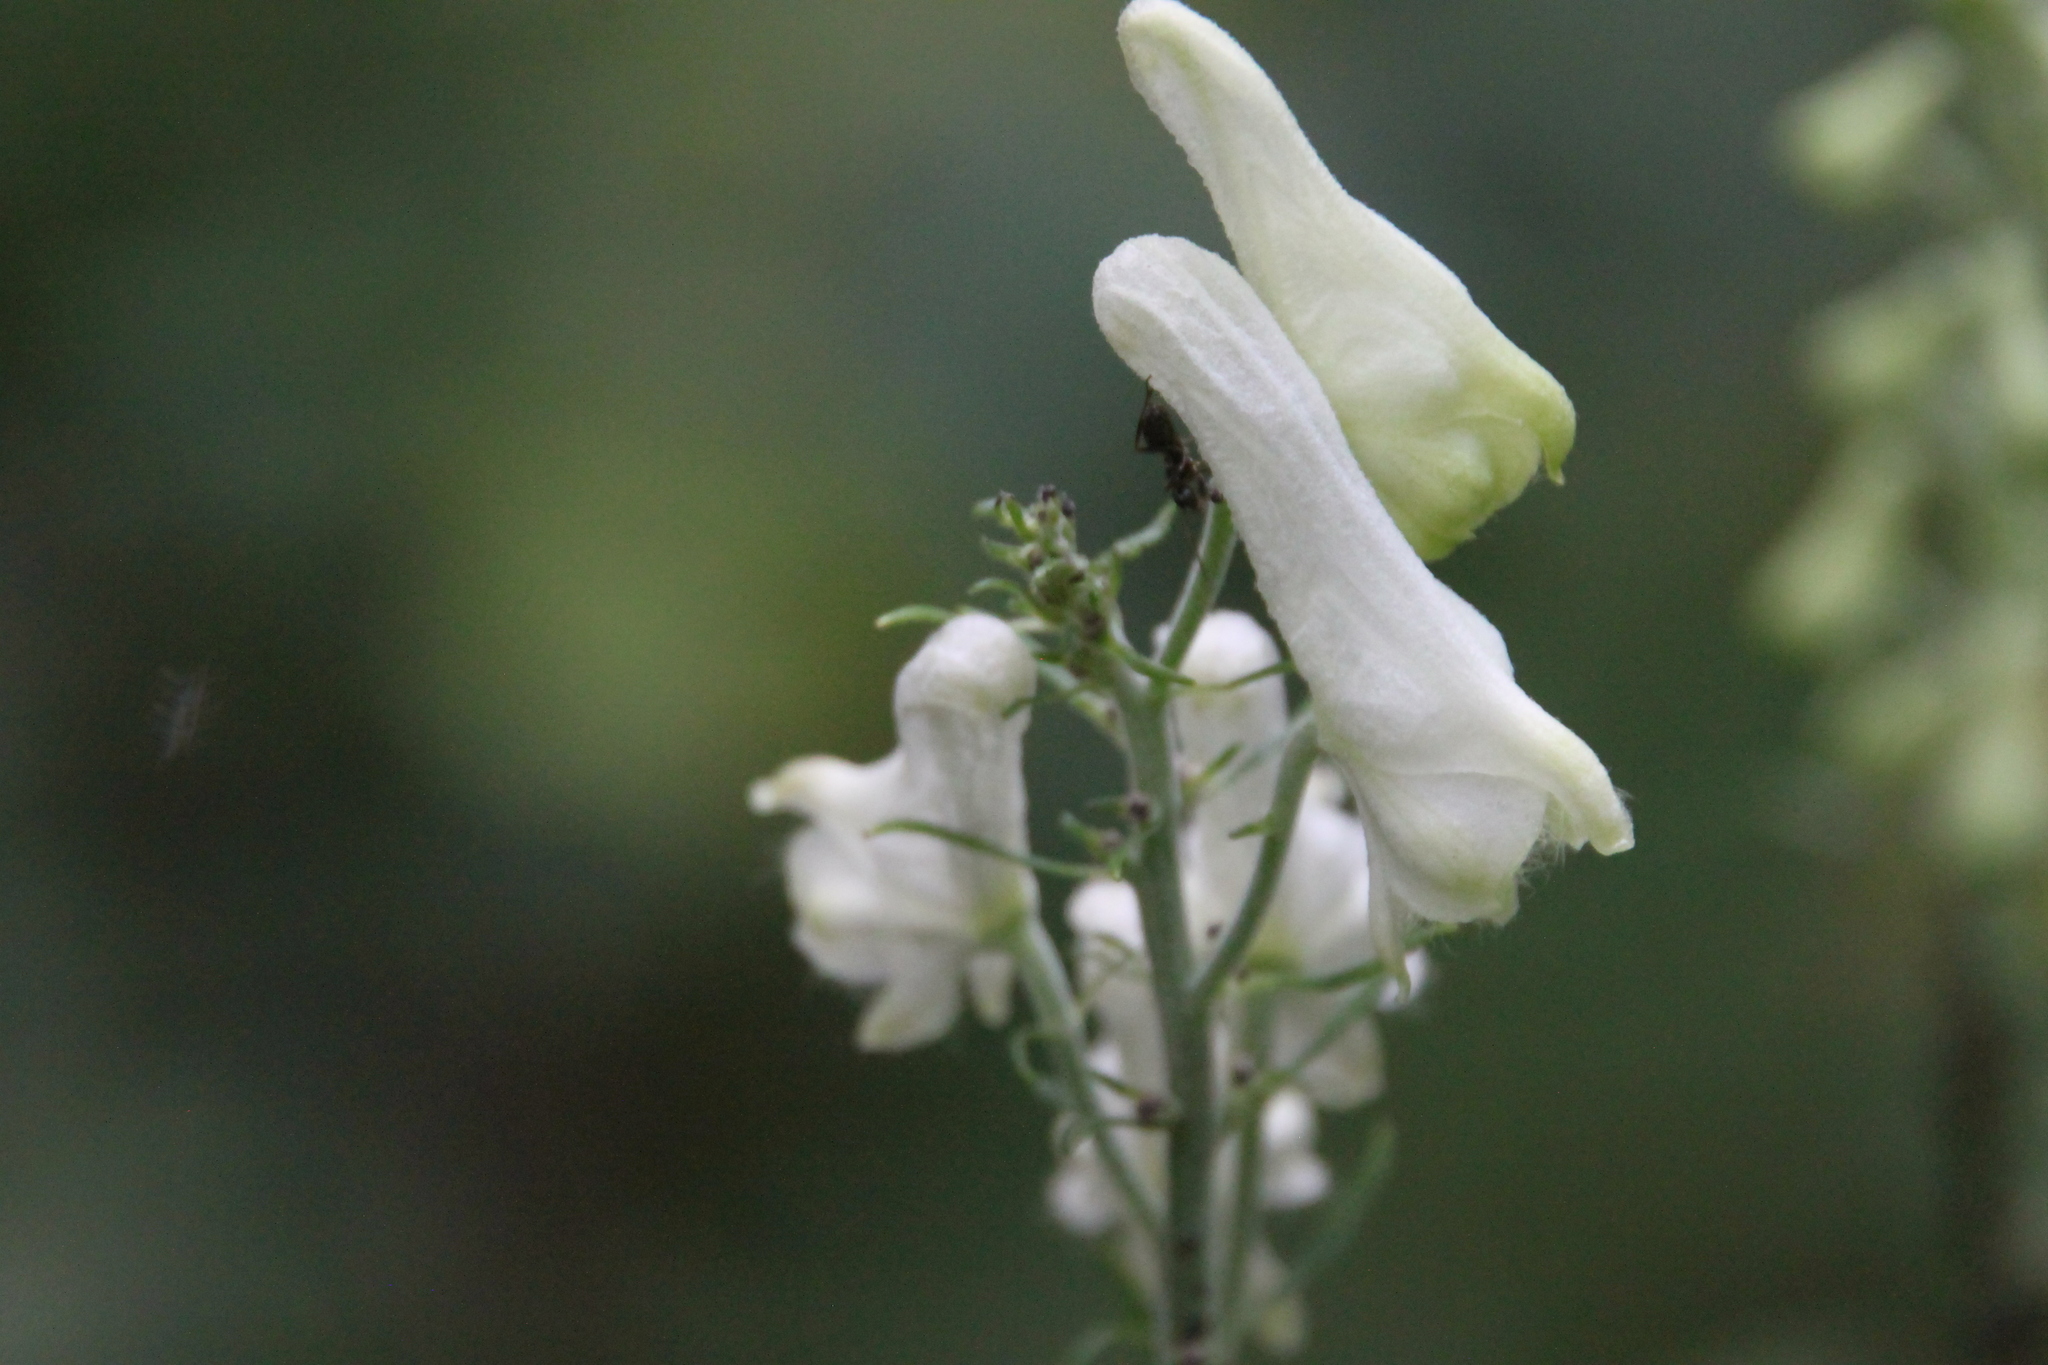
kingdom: Plantae
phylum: Tracheophyta
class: Magnoliopsida
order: Ranunculales
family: Ranunculaceae
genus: Aconitum
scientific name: Aconitum lasiostomum
